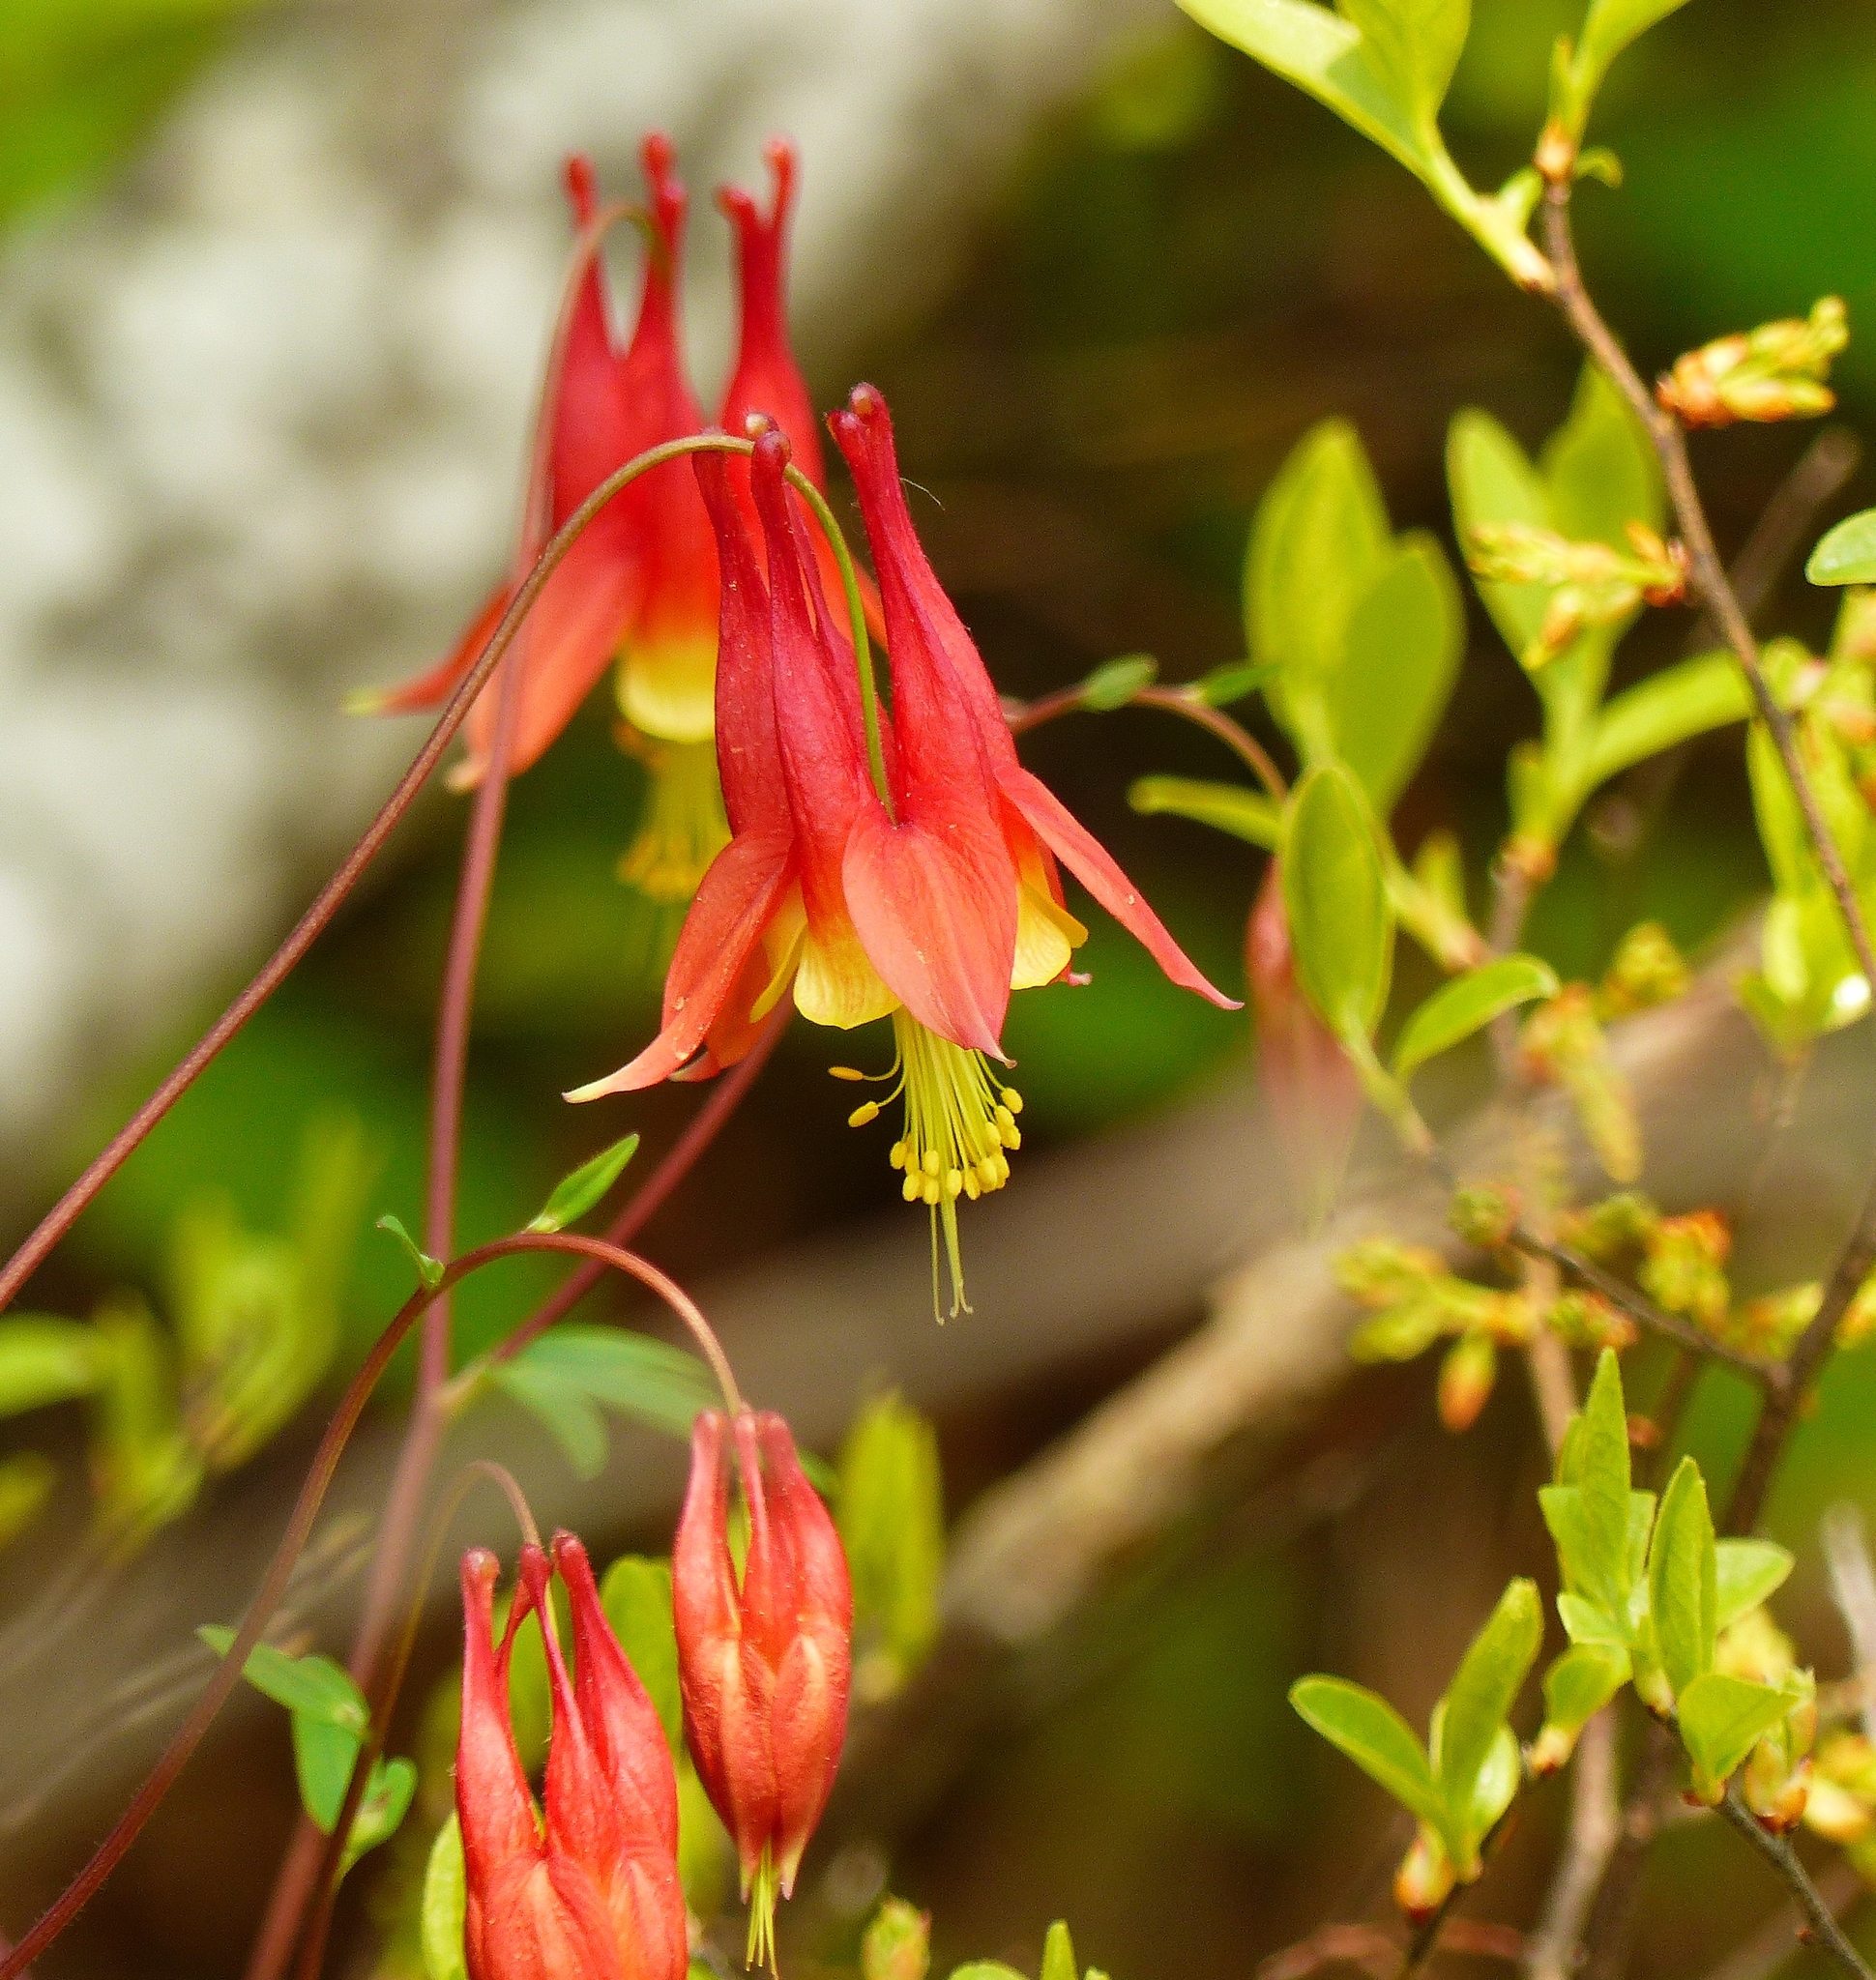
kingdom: Plantae
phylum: Tracheophyta
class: Magnoliopsida
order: Ranunculales
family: Ranunculaceae
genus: Aquilegia
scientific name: Aquilegia canadensis
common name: American columbine
